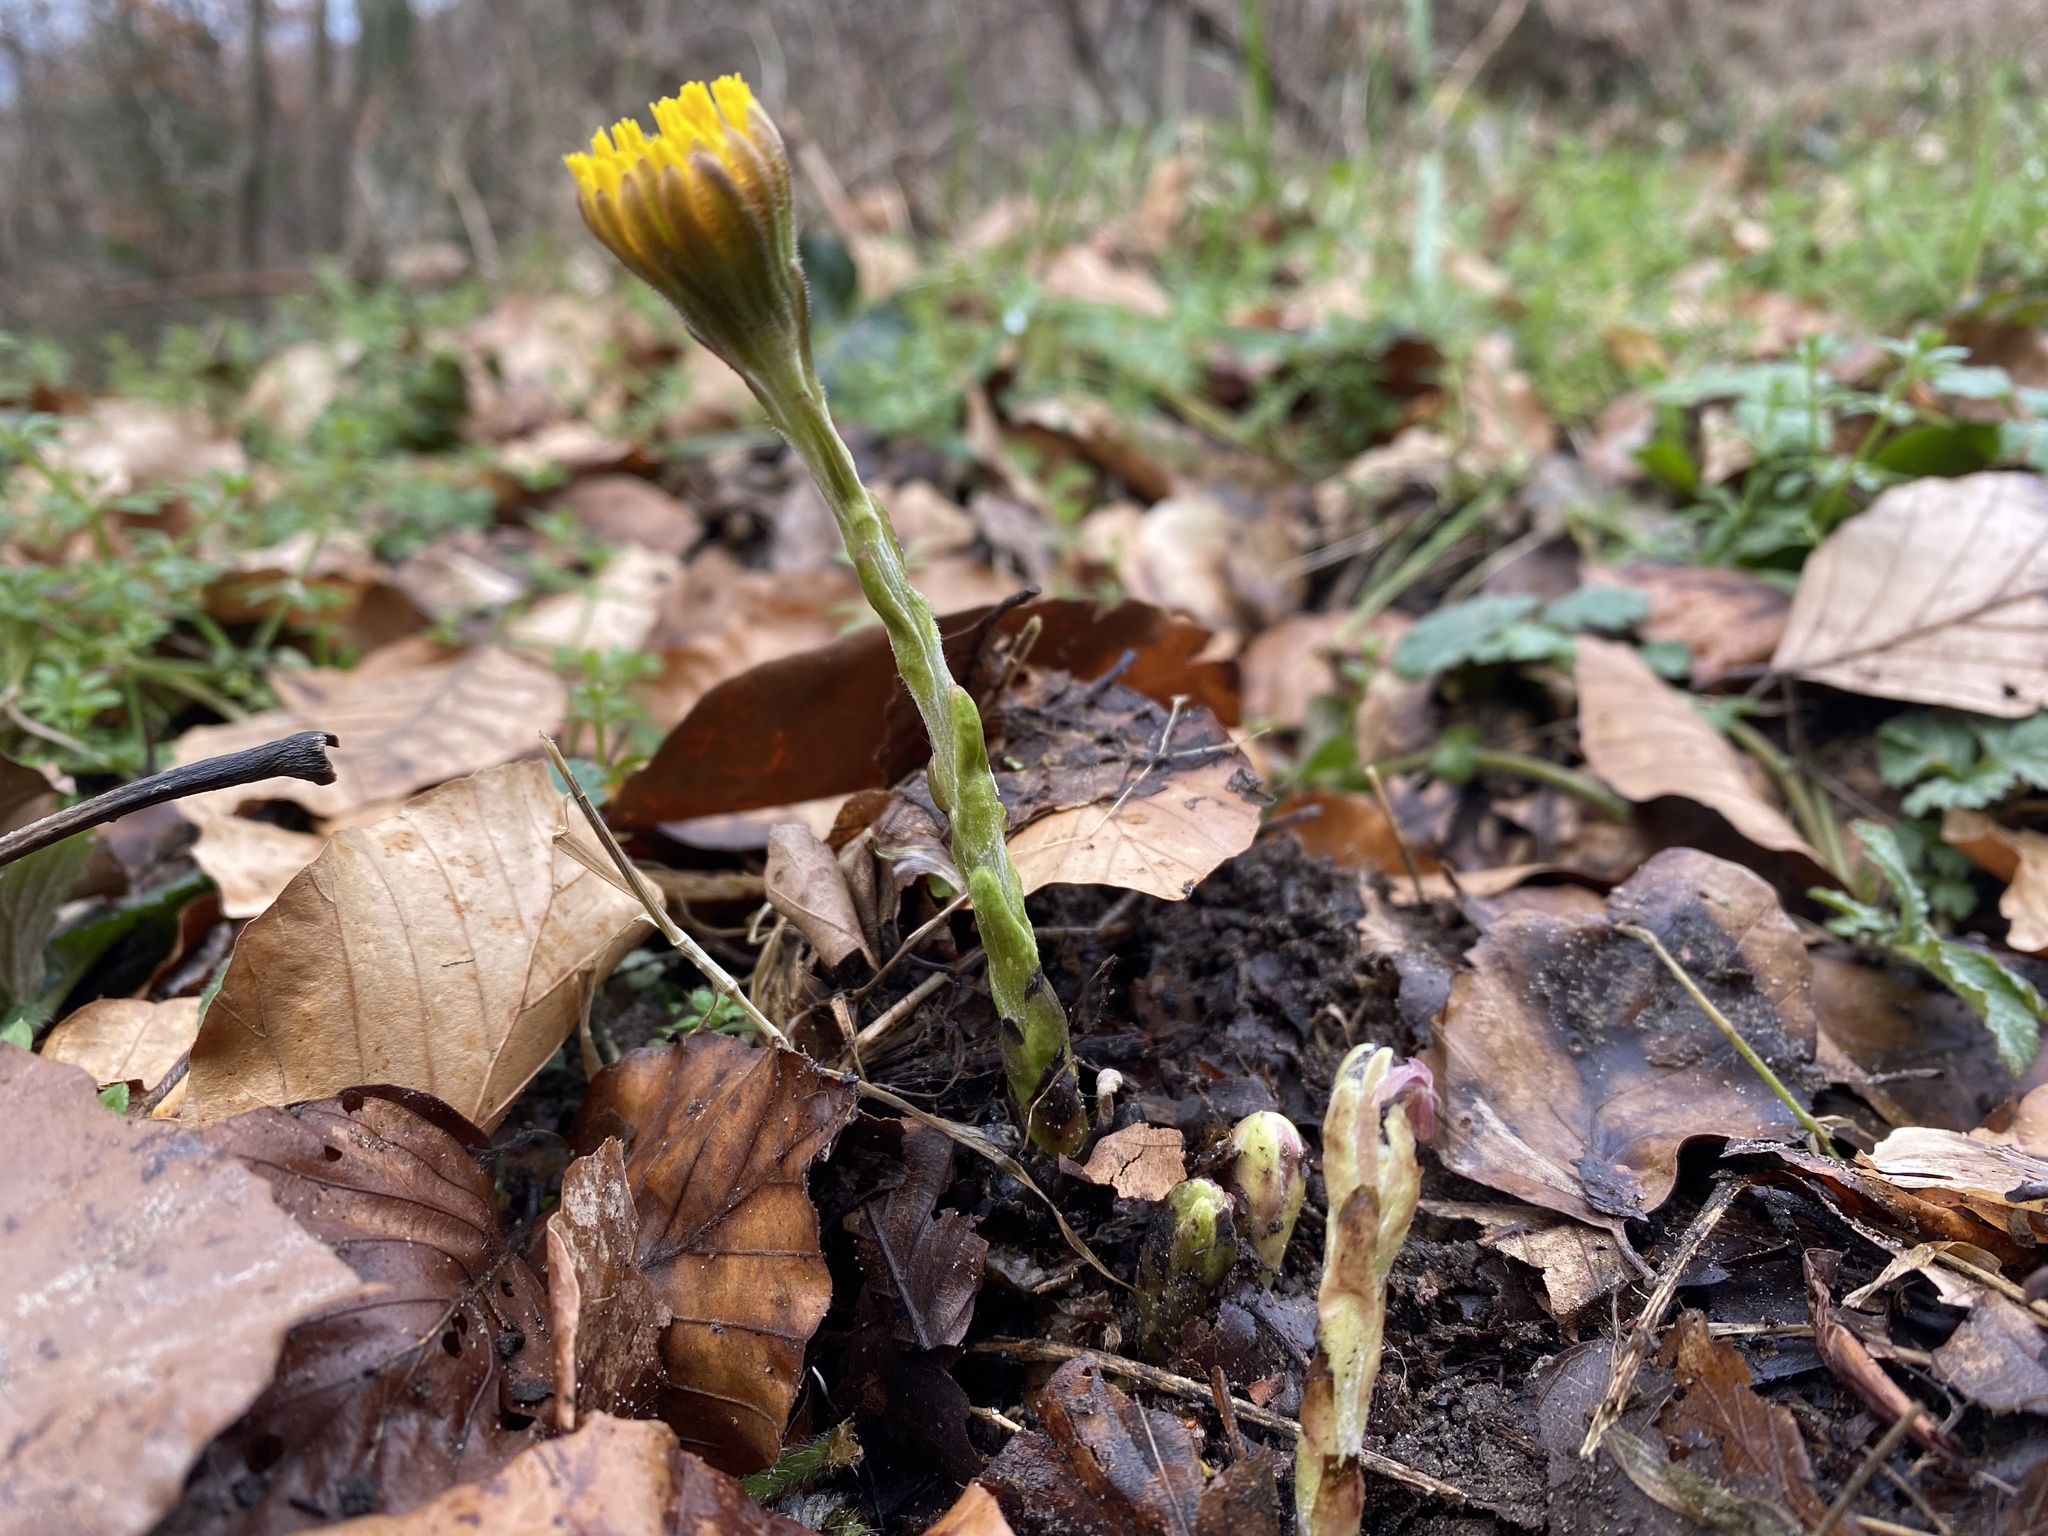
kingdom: Plantae
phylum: Tracheophyta
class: Magnoliopsida
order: Asterales
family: Asteraceae
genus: Tussilago
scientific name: Tussilago farfara
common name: Coltsfoot
